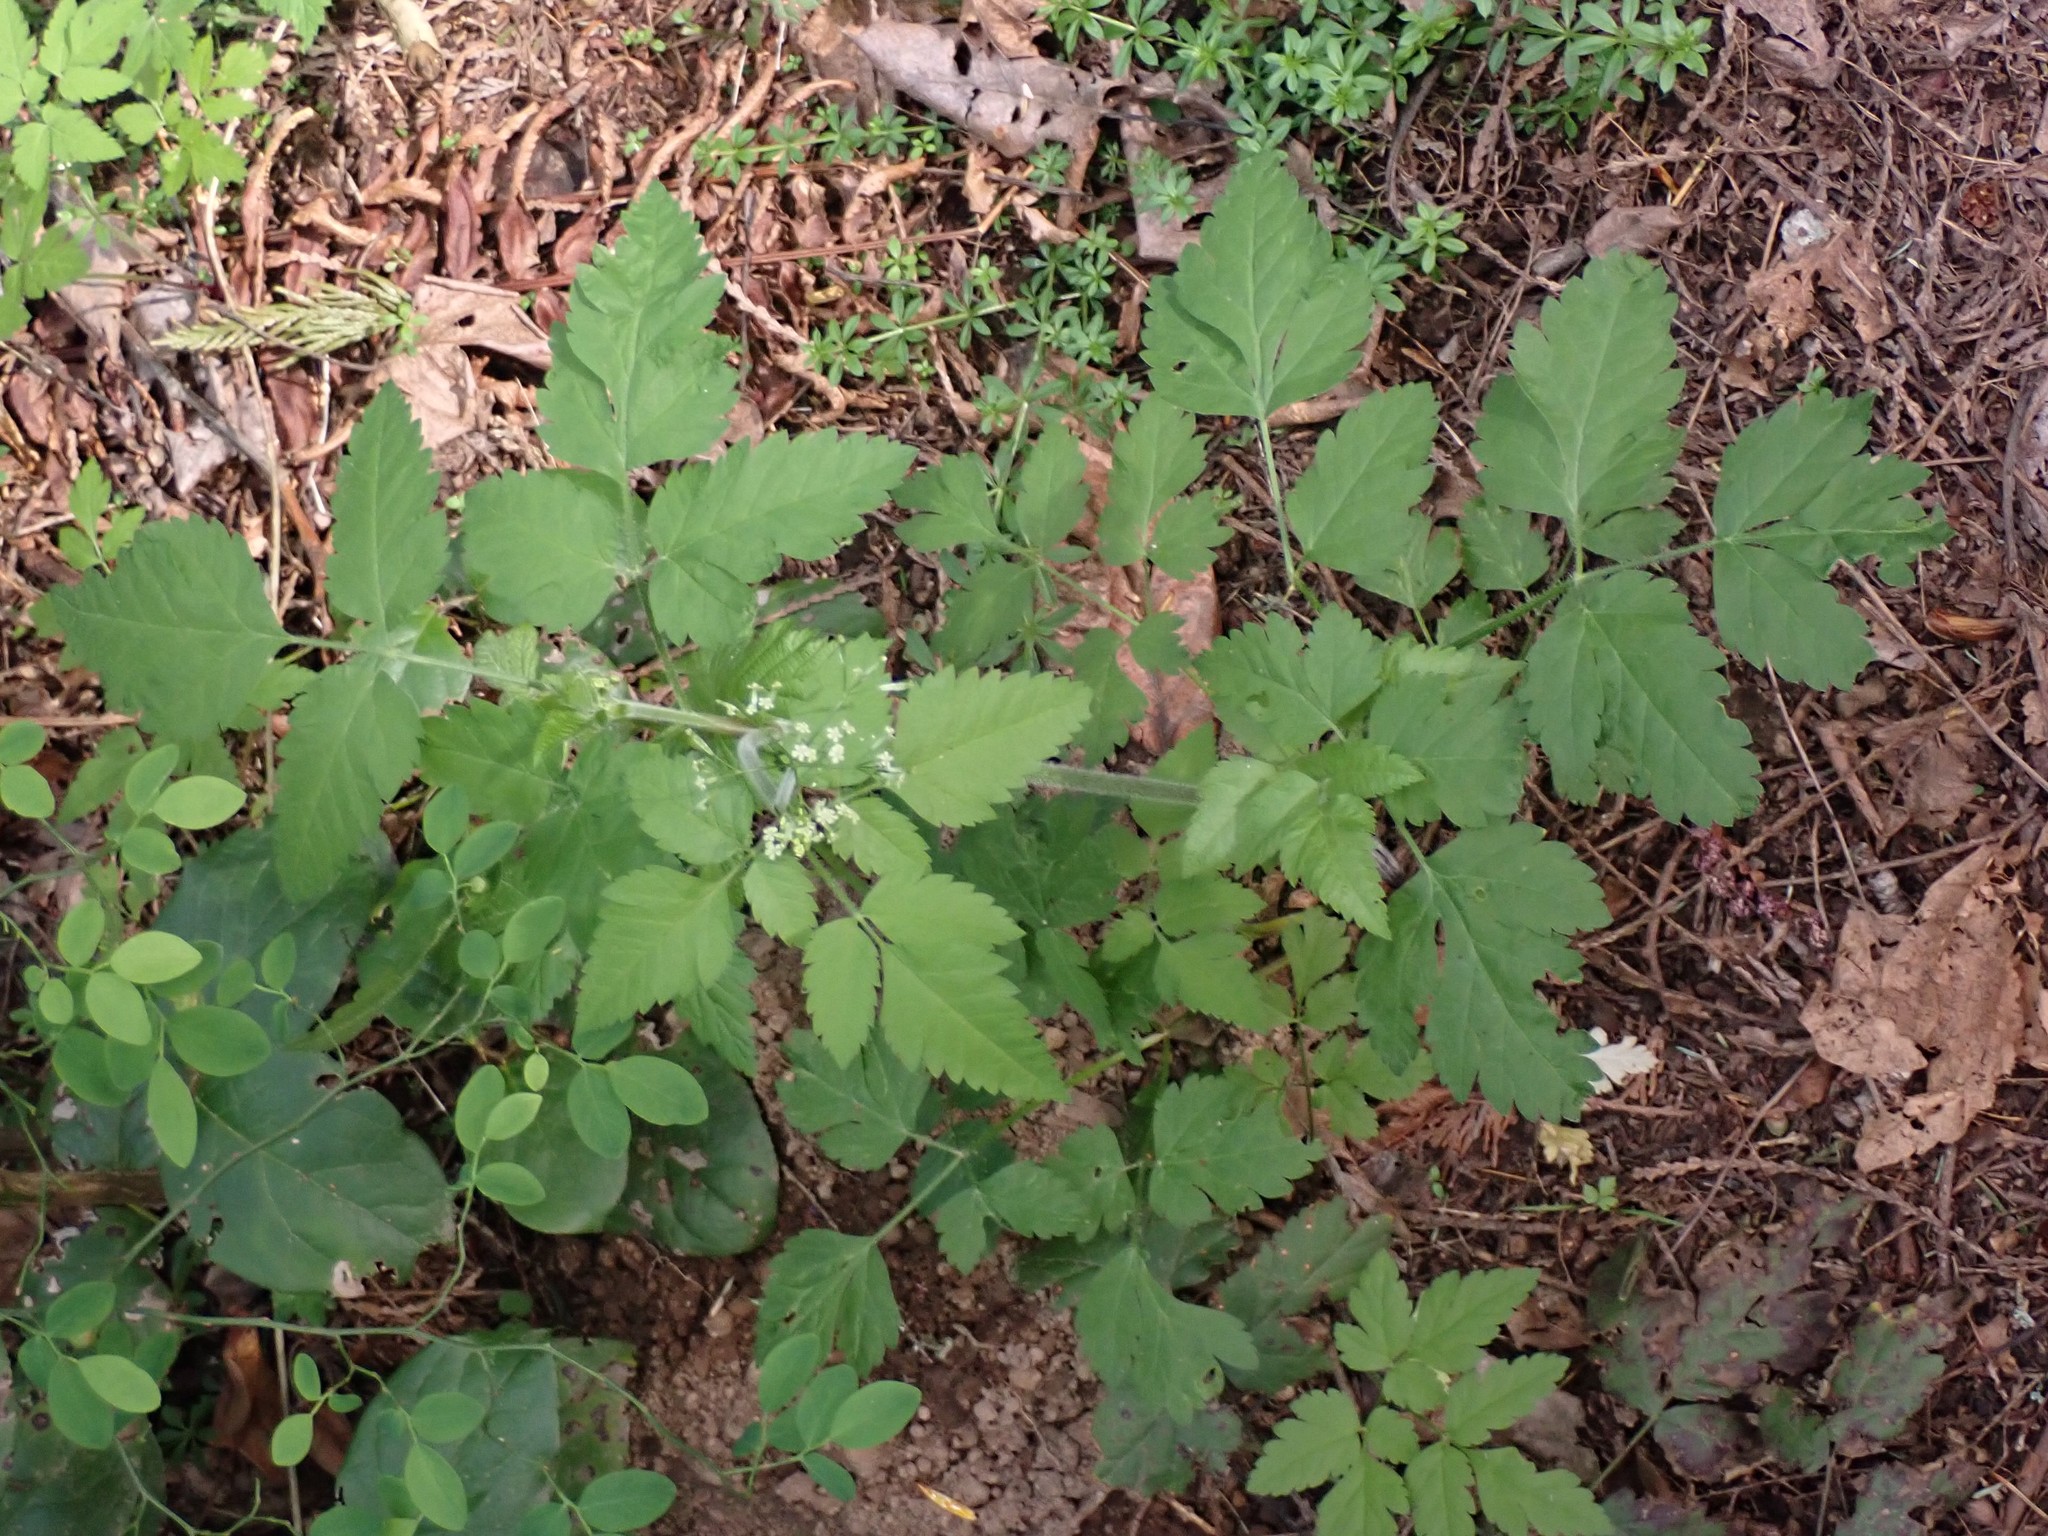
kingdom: Plantae
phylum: Tracheophyta
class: Magnoliopsida
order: Apiales
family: Apiaceae
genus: Osmorhiza
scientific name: Osmorhiza berteroi
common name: Mountain sweet cicely
